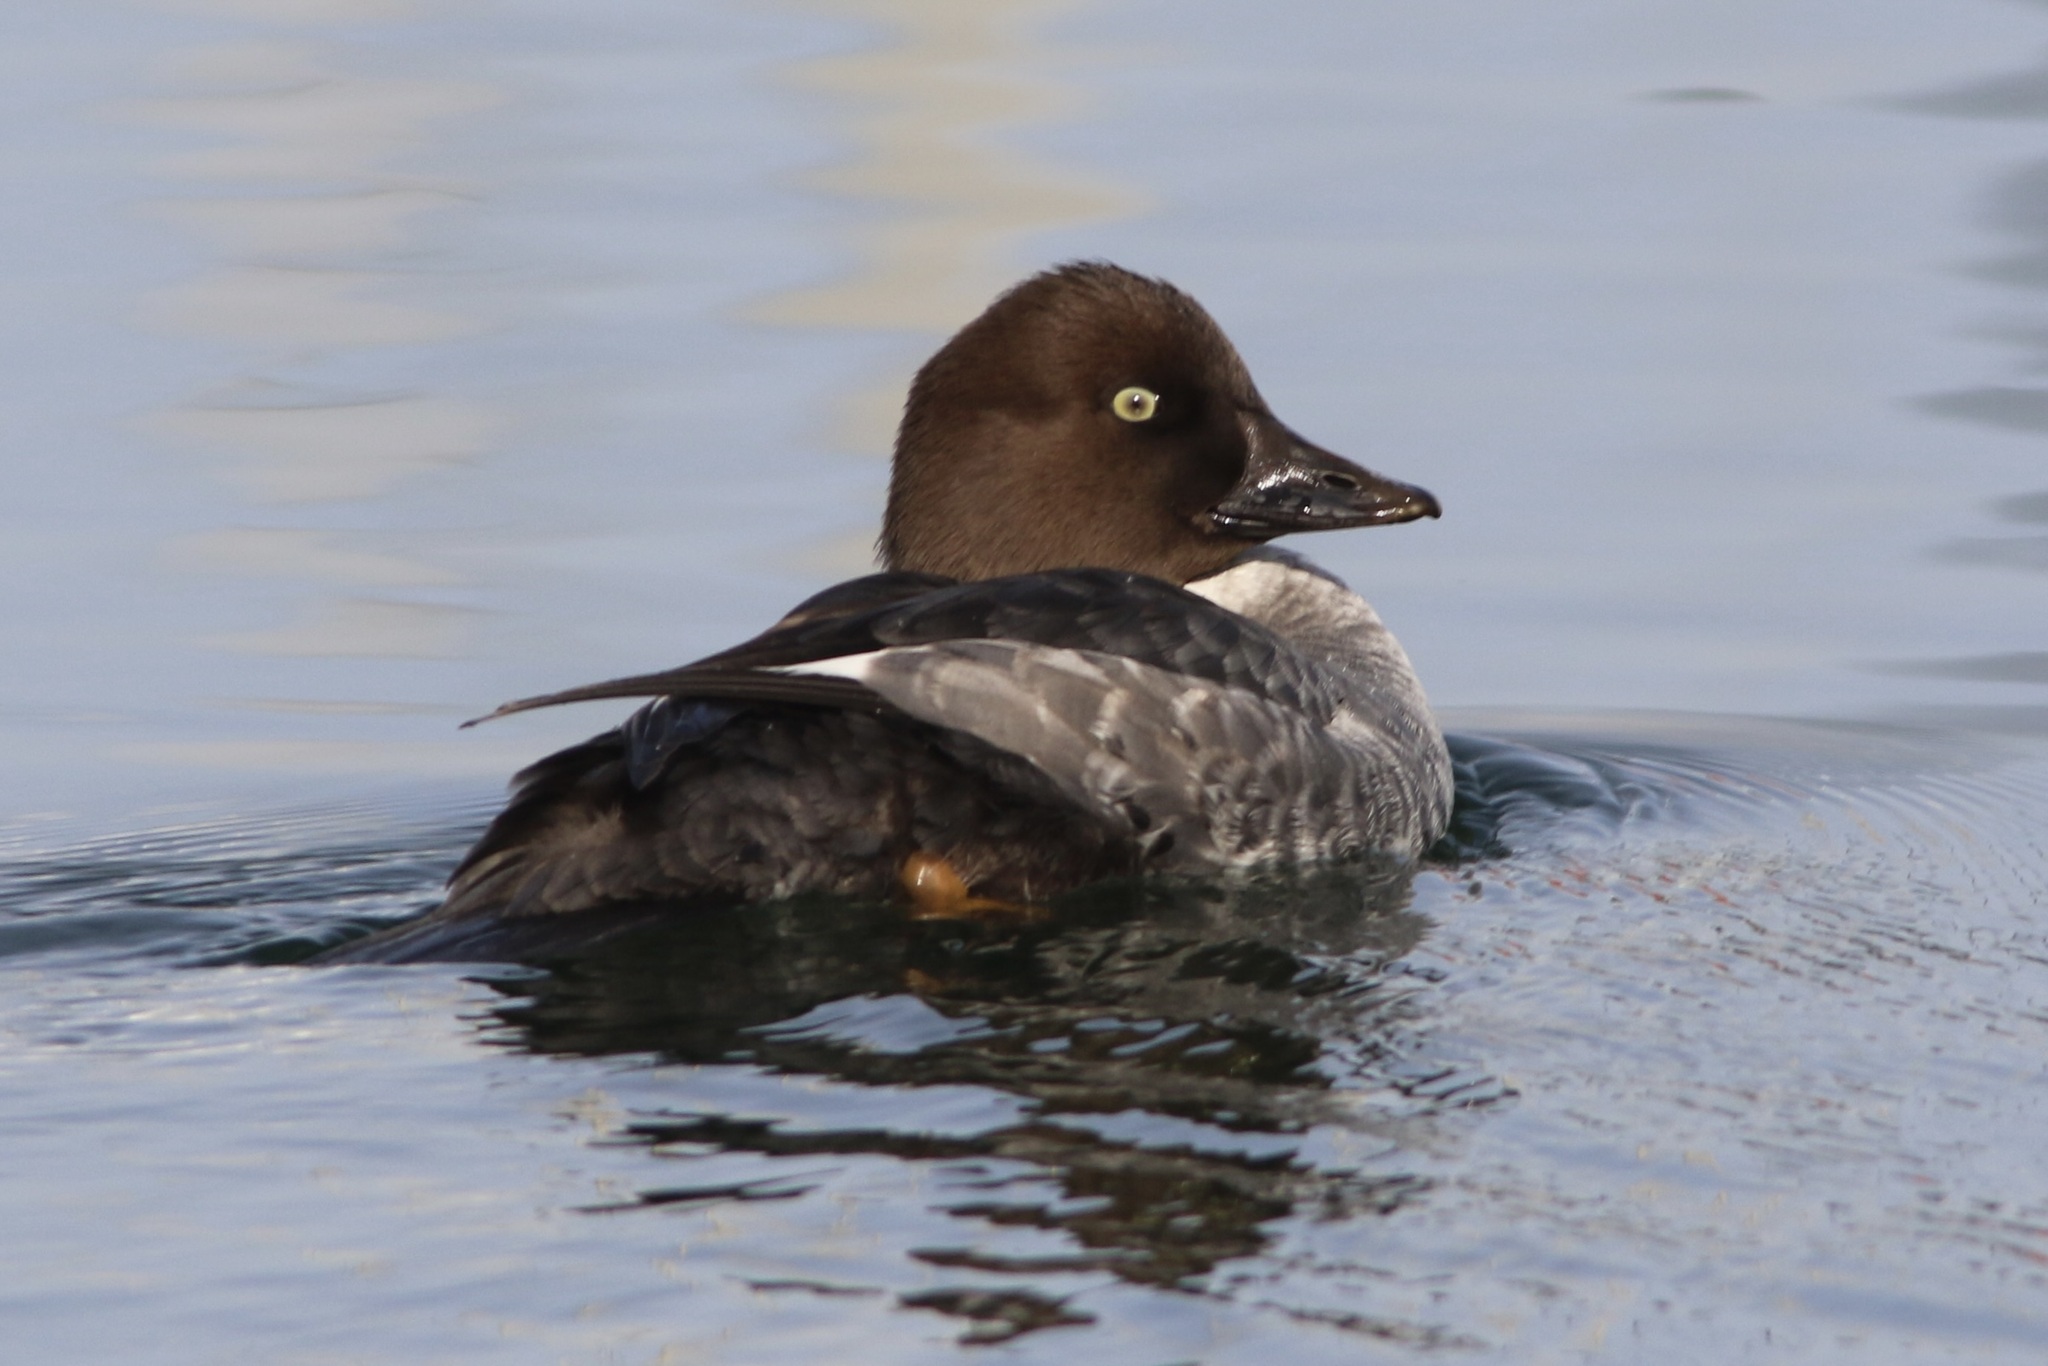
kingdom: Animalia
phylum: Chordata
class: Aves
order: Anseriformes
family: Anatidae
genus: Bucephala
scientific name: Bucephala clangula
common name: Common goldeneye
